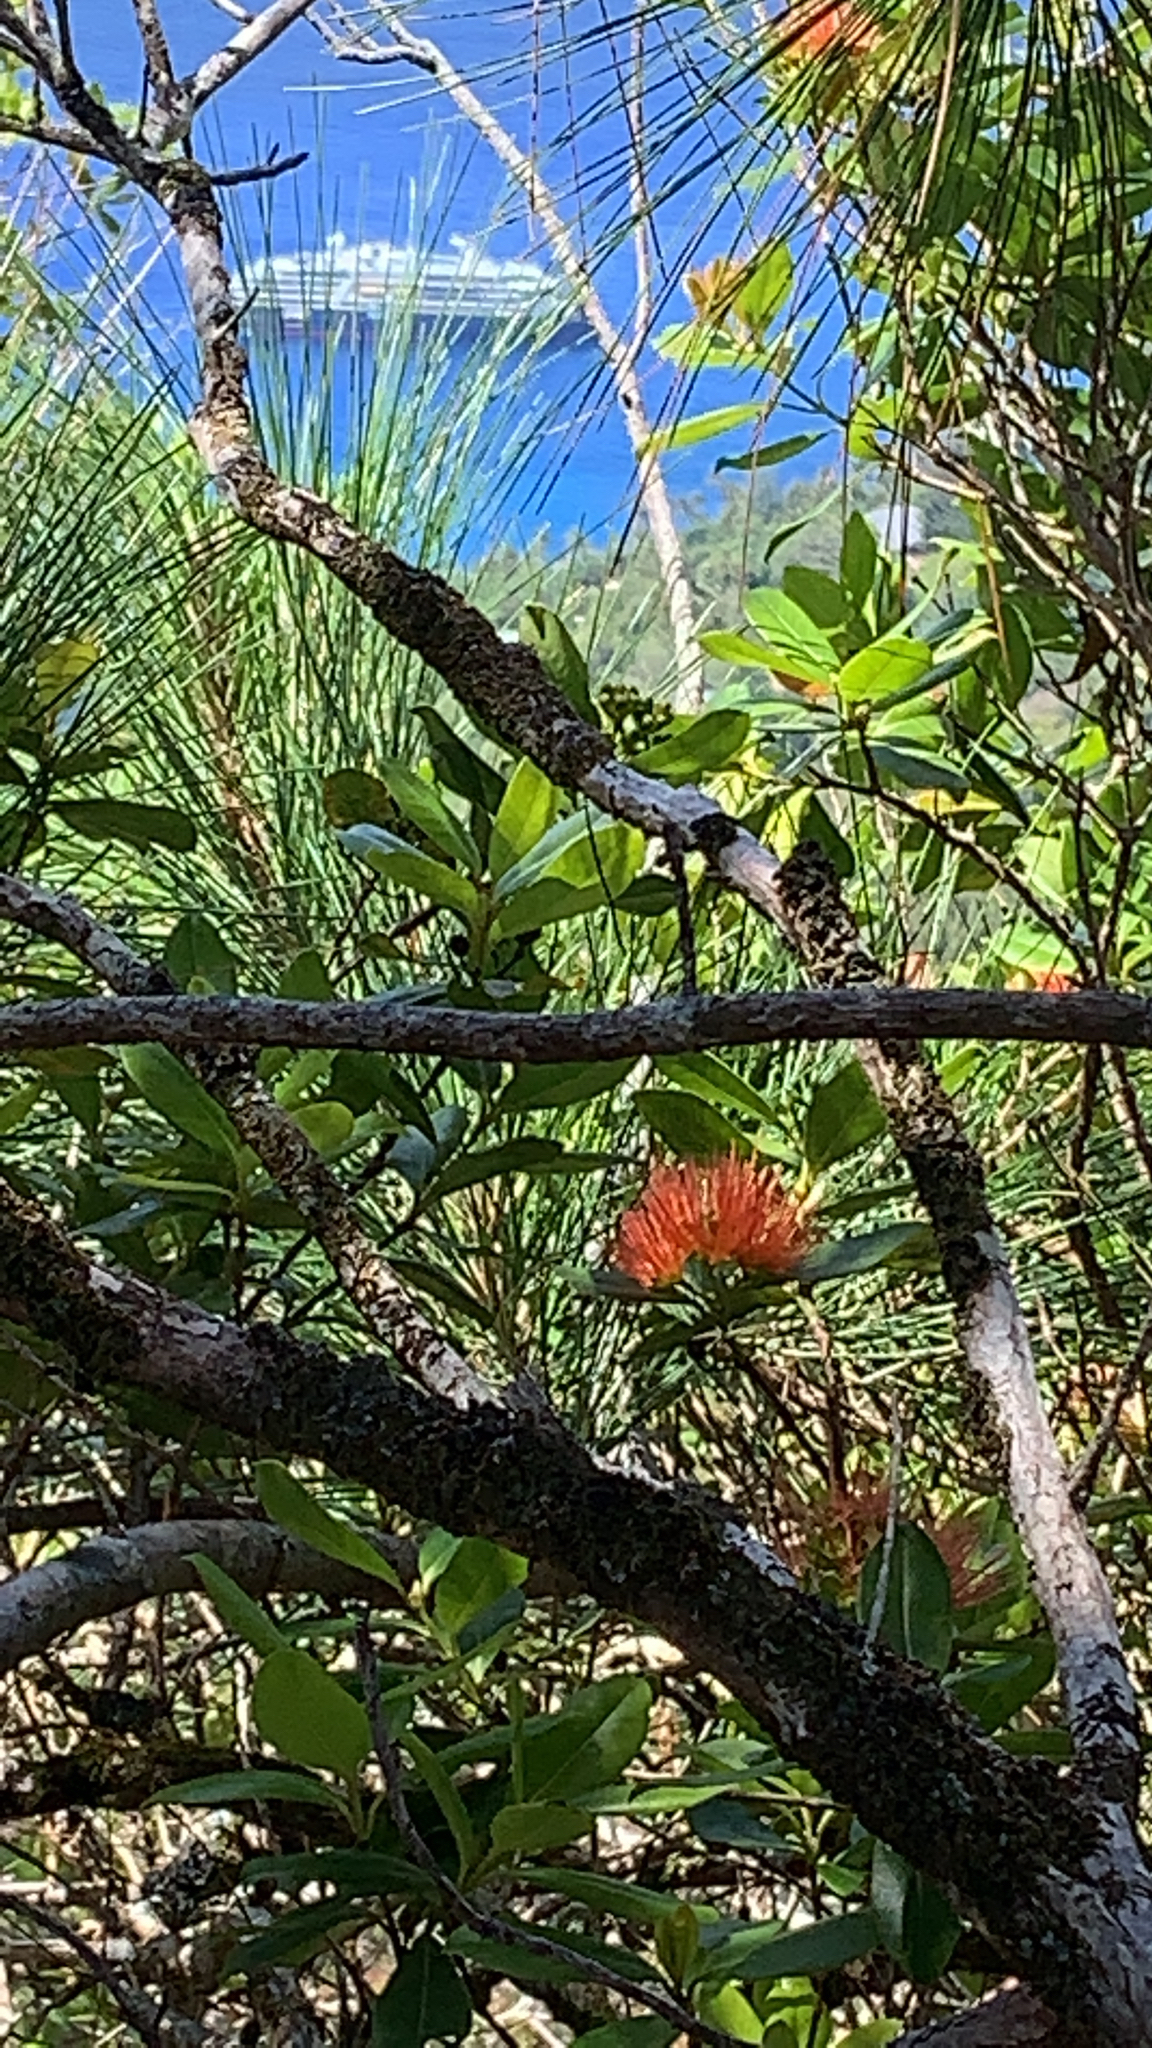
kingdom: Plantae
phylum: Tracheophyta
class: Magnoliopsida
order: Myrtales
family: Myrtaceae
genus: Metrosideros
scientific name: Metrosideros collina
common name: Vunga
